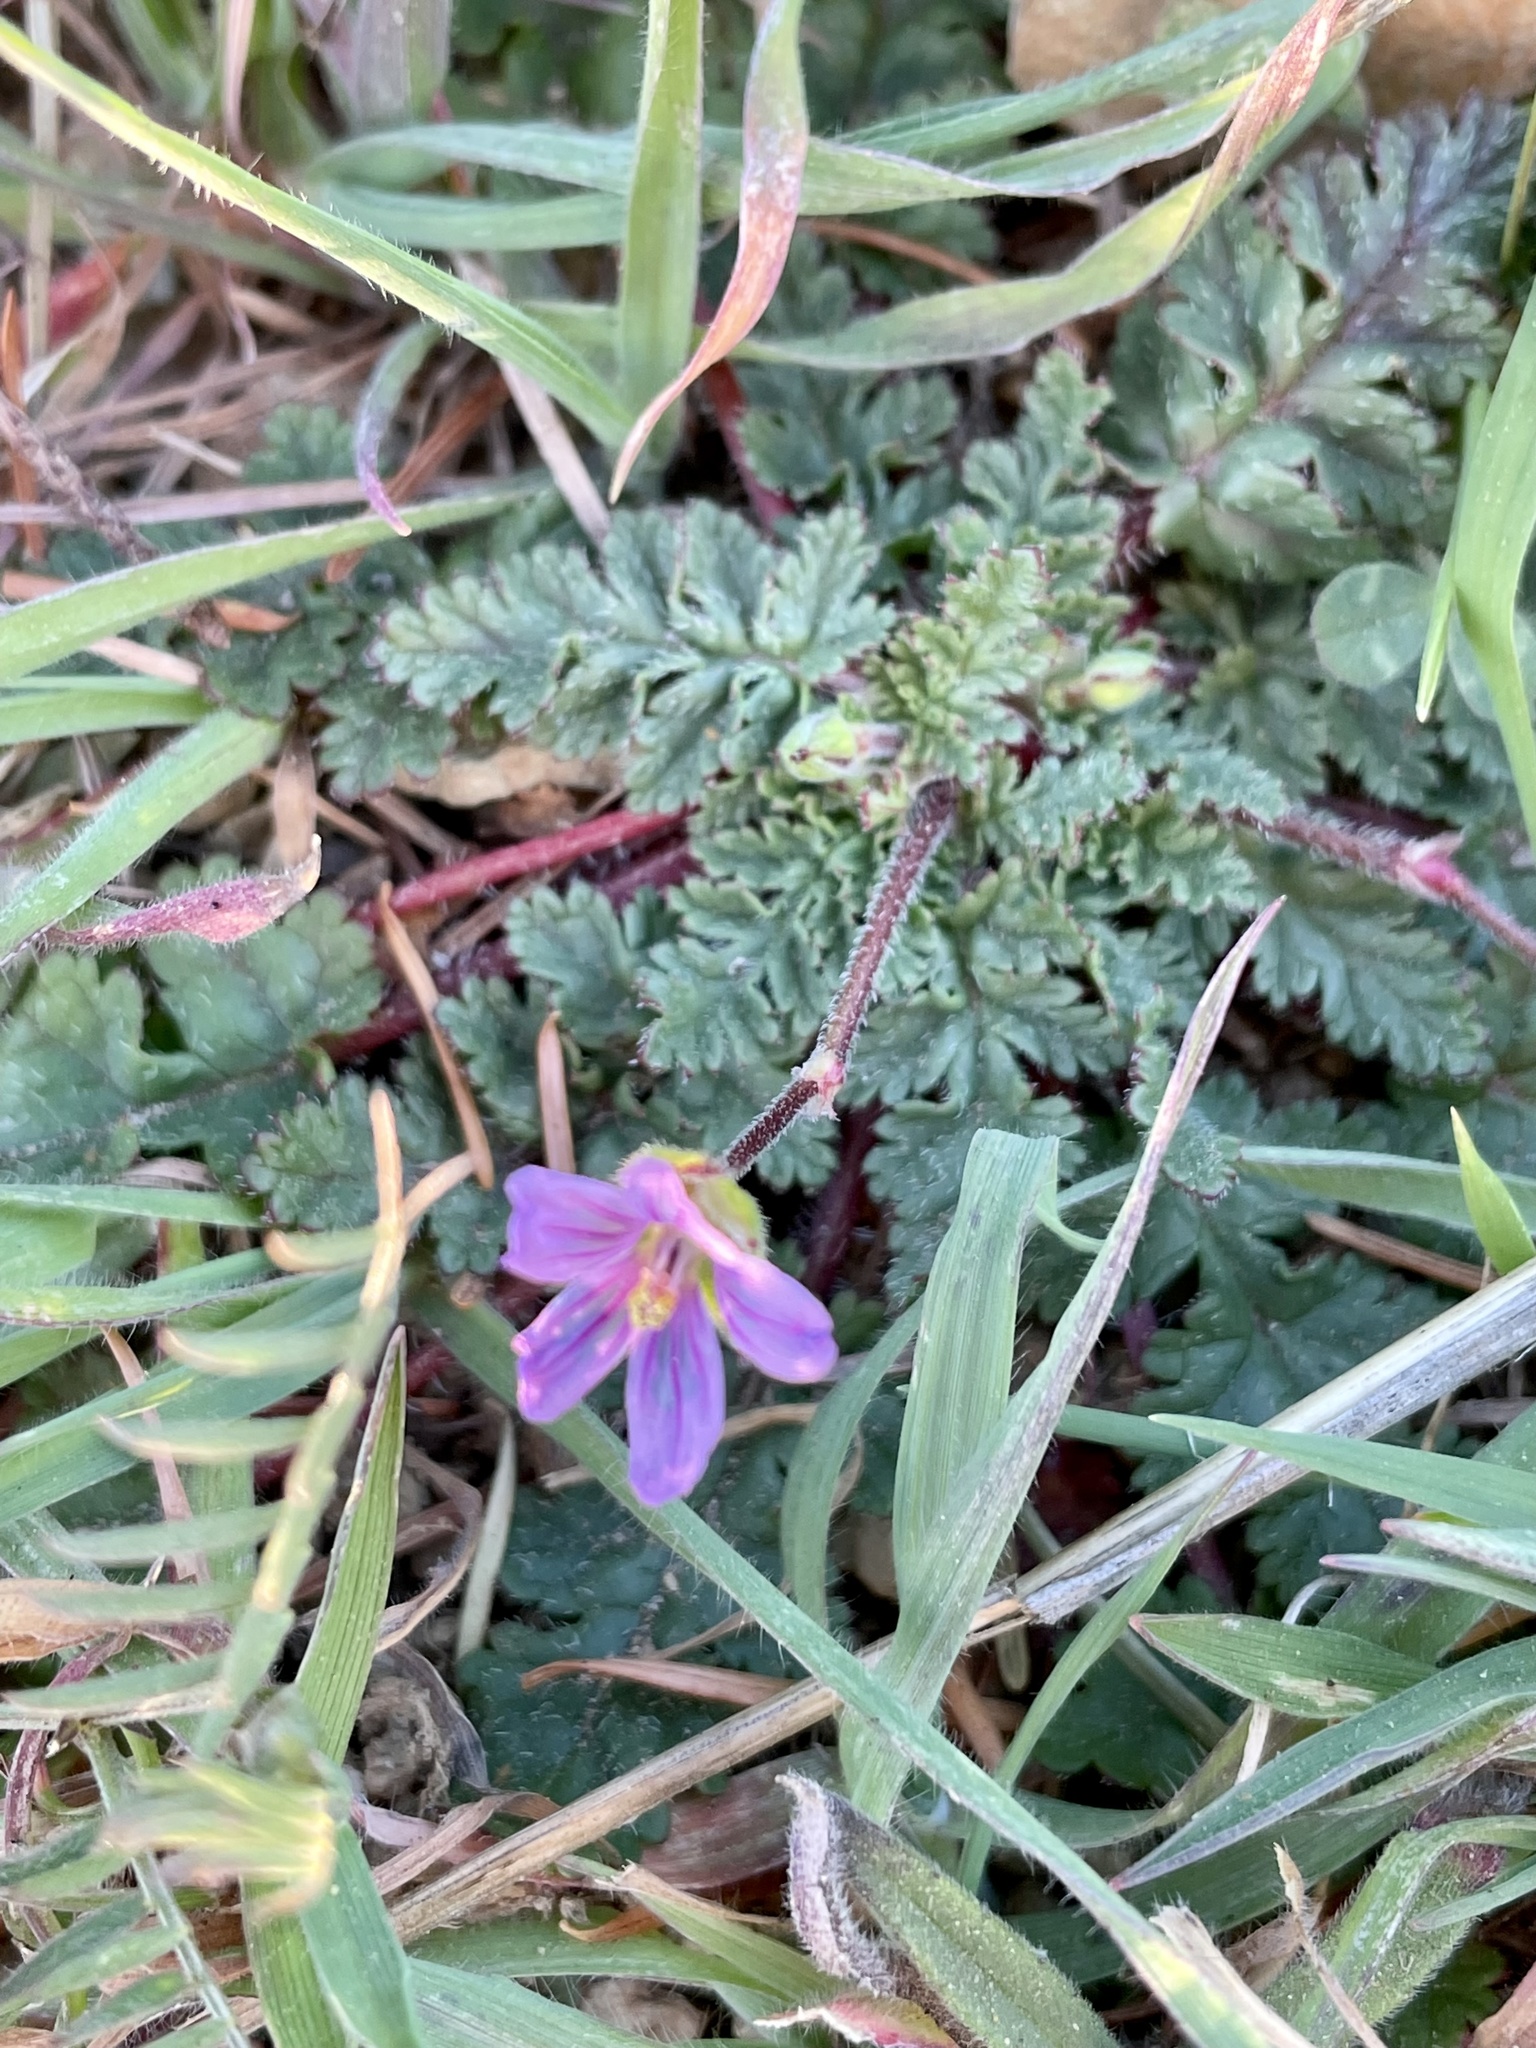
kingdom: Plantae
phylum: Tracheophyta
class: Magnoliopsida
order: Geraniales
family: Geraniaceae
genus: Erodium
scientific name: Erodium botrys
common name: Mediterranean stork's-bill
